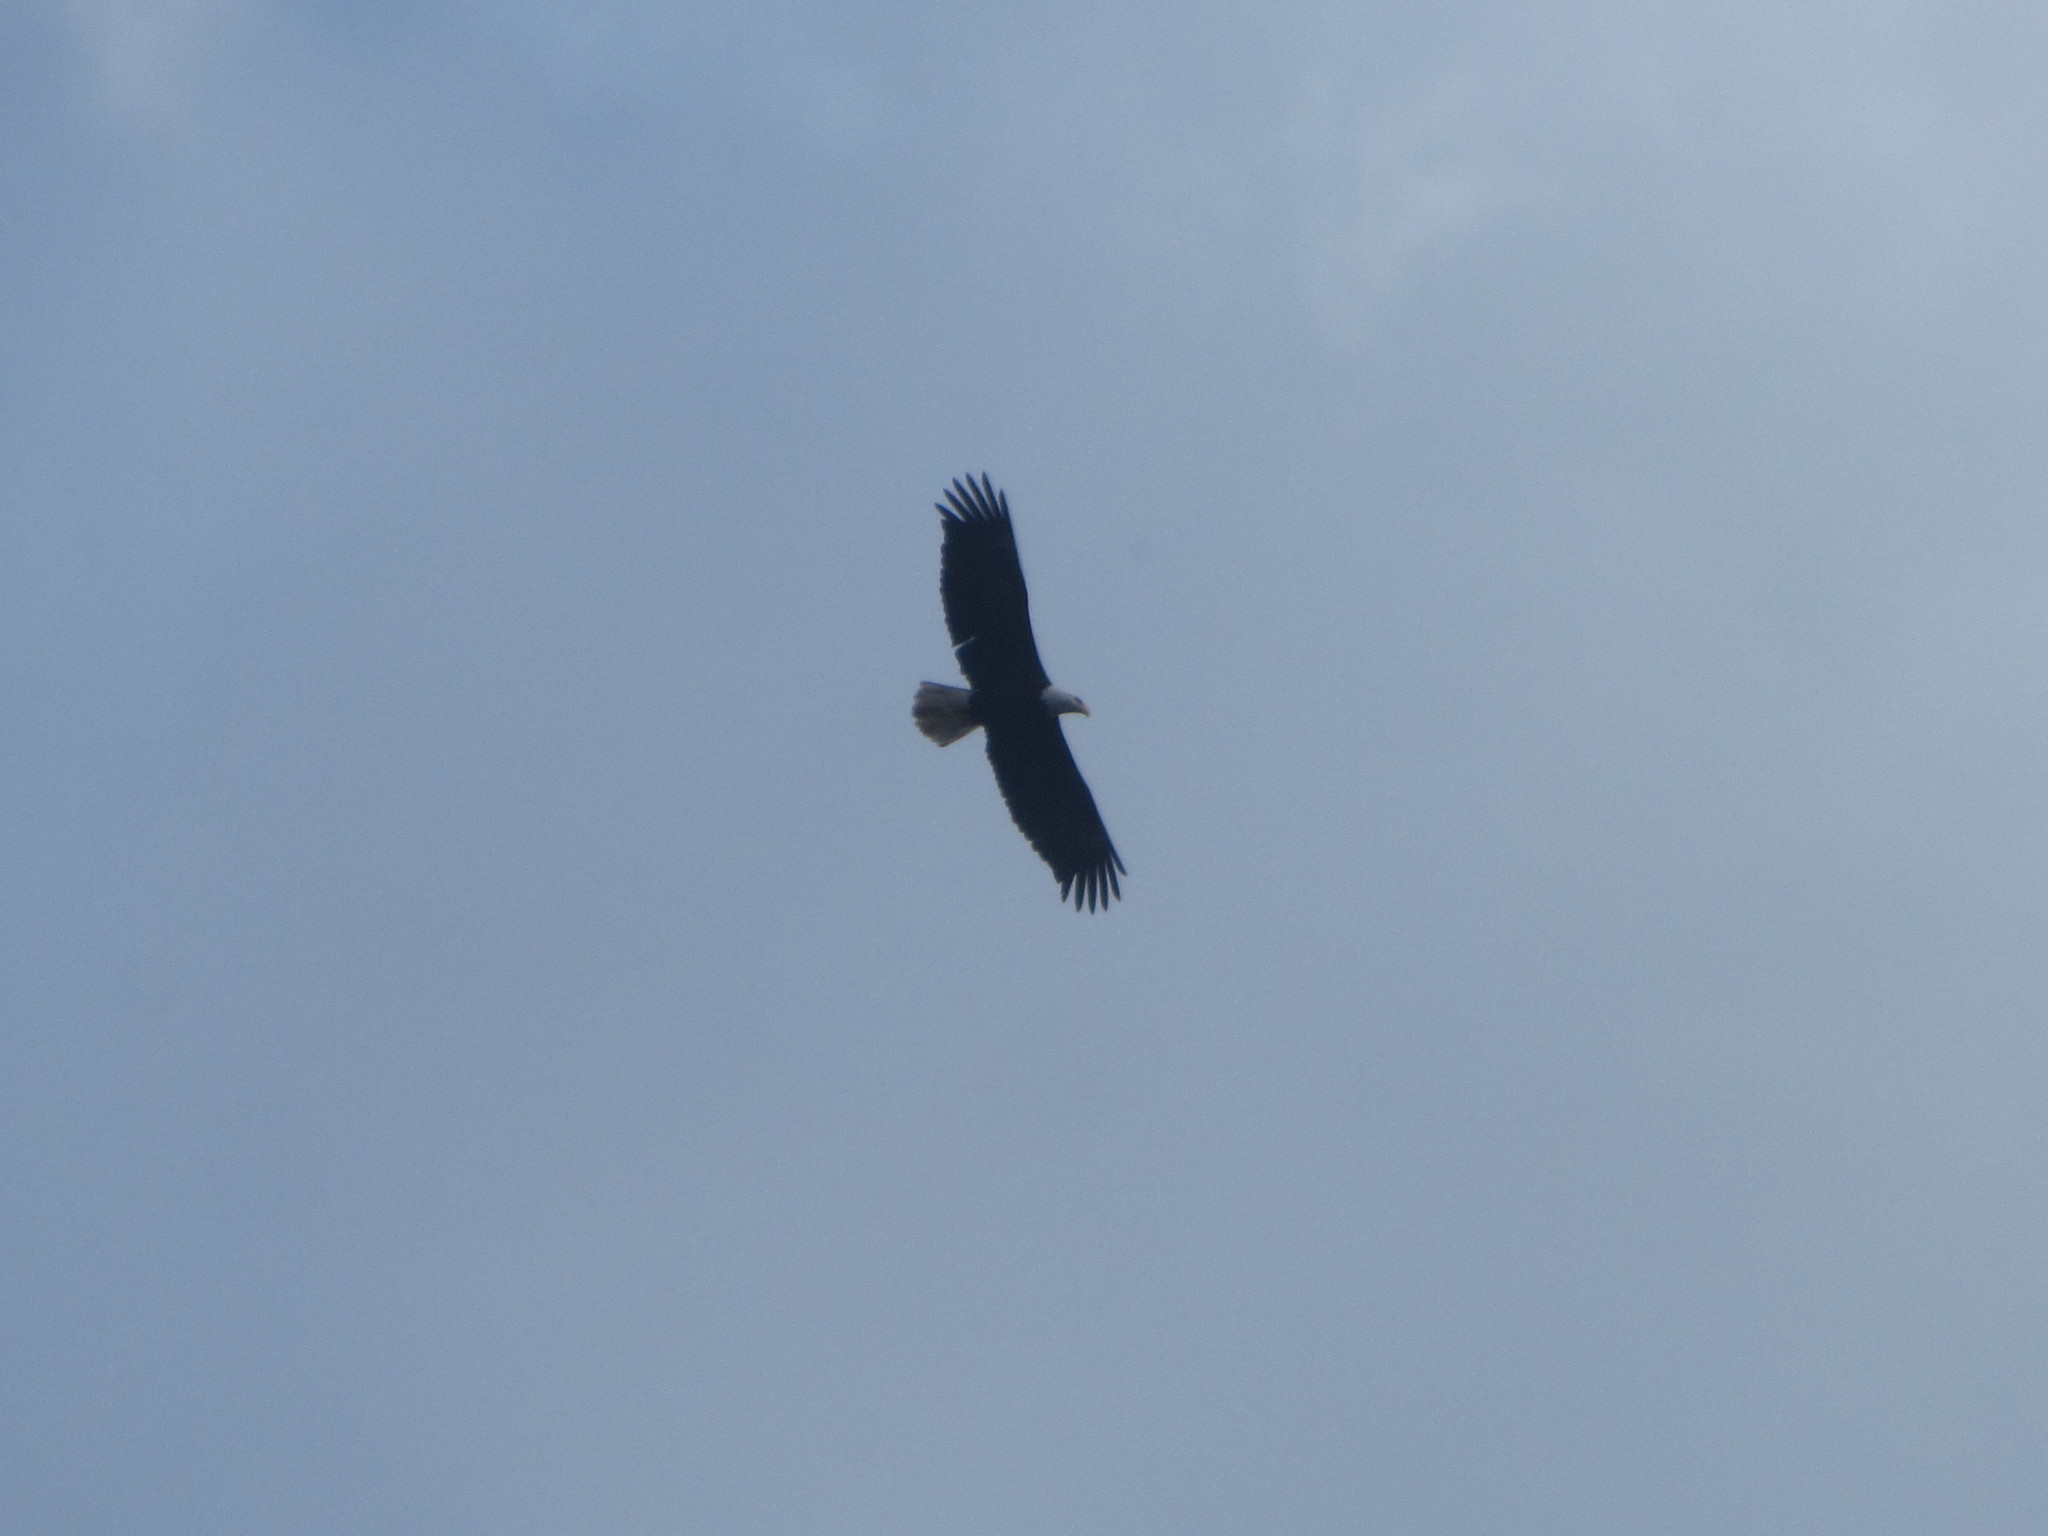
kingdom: Animalia
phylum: Chordata
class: Aves
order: Accipitriformes
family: Accipitridae
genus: Haliaeetus
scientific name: Haliaeetus leucocephalus
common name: Bald eagle
